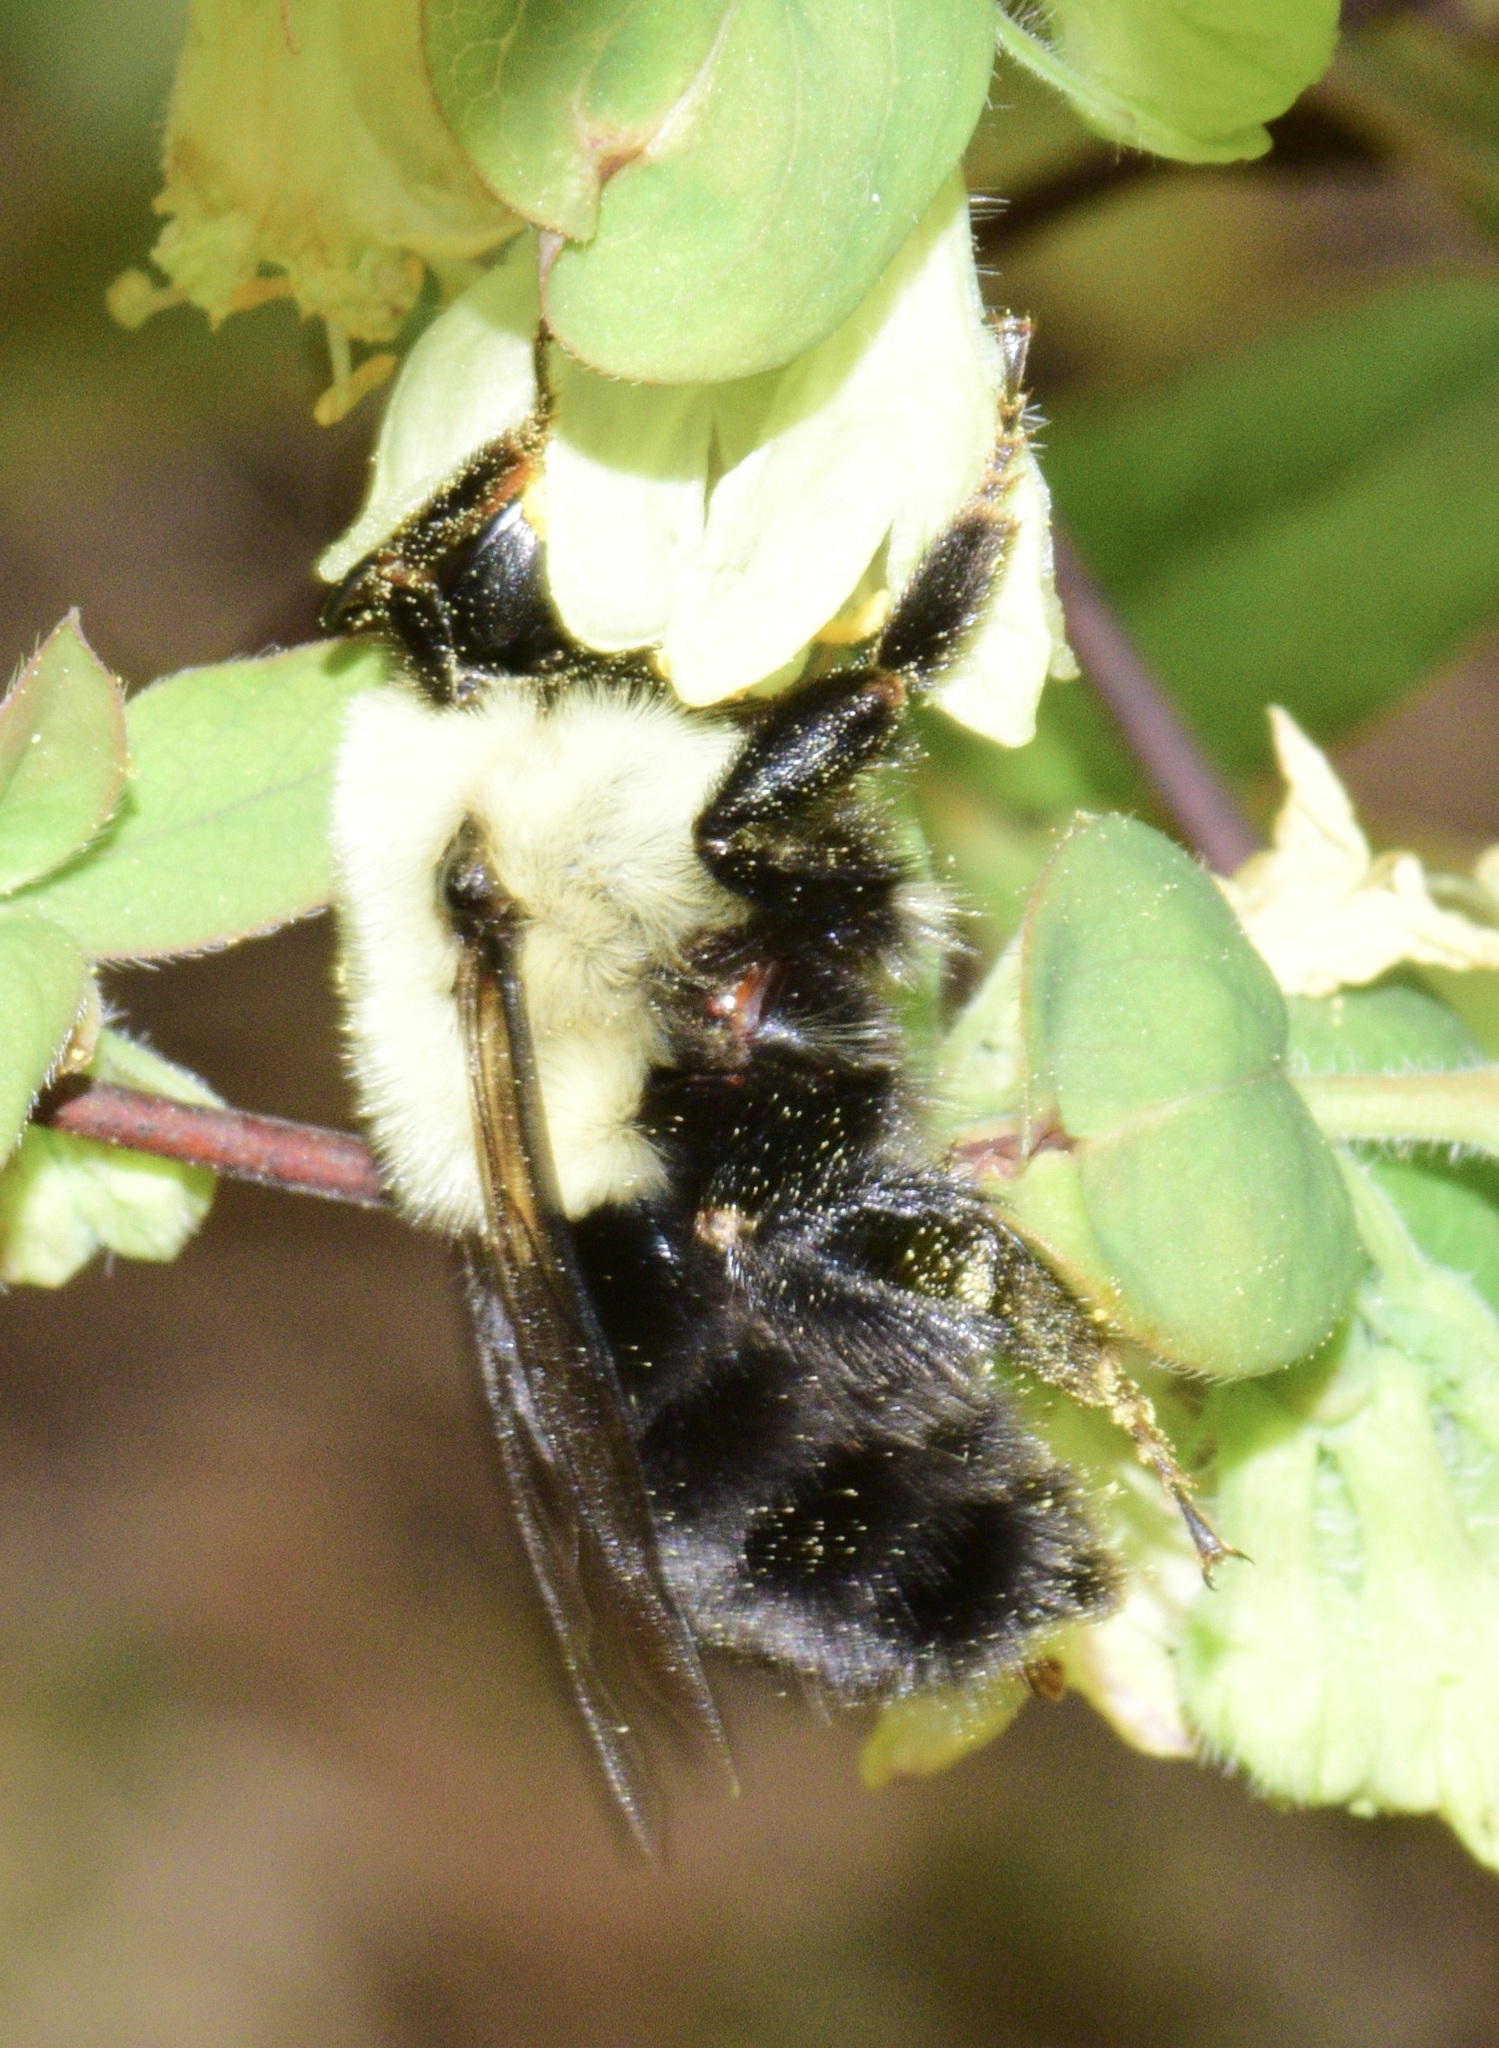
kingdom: Animalia
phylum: Arthropoda
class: Insecta
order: Hymenoptera
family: Apidae
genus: Bombus
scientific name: Bombus impatiens
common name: Common eastern bumble bee
